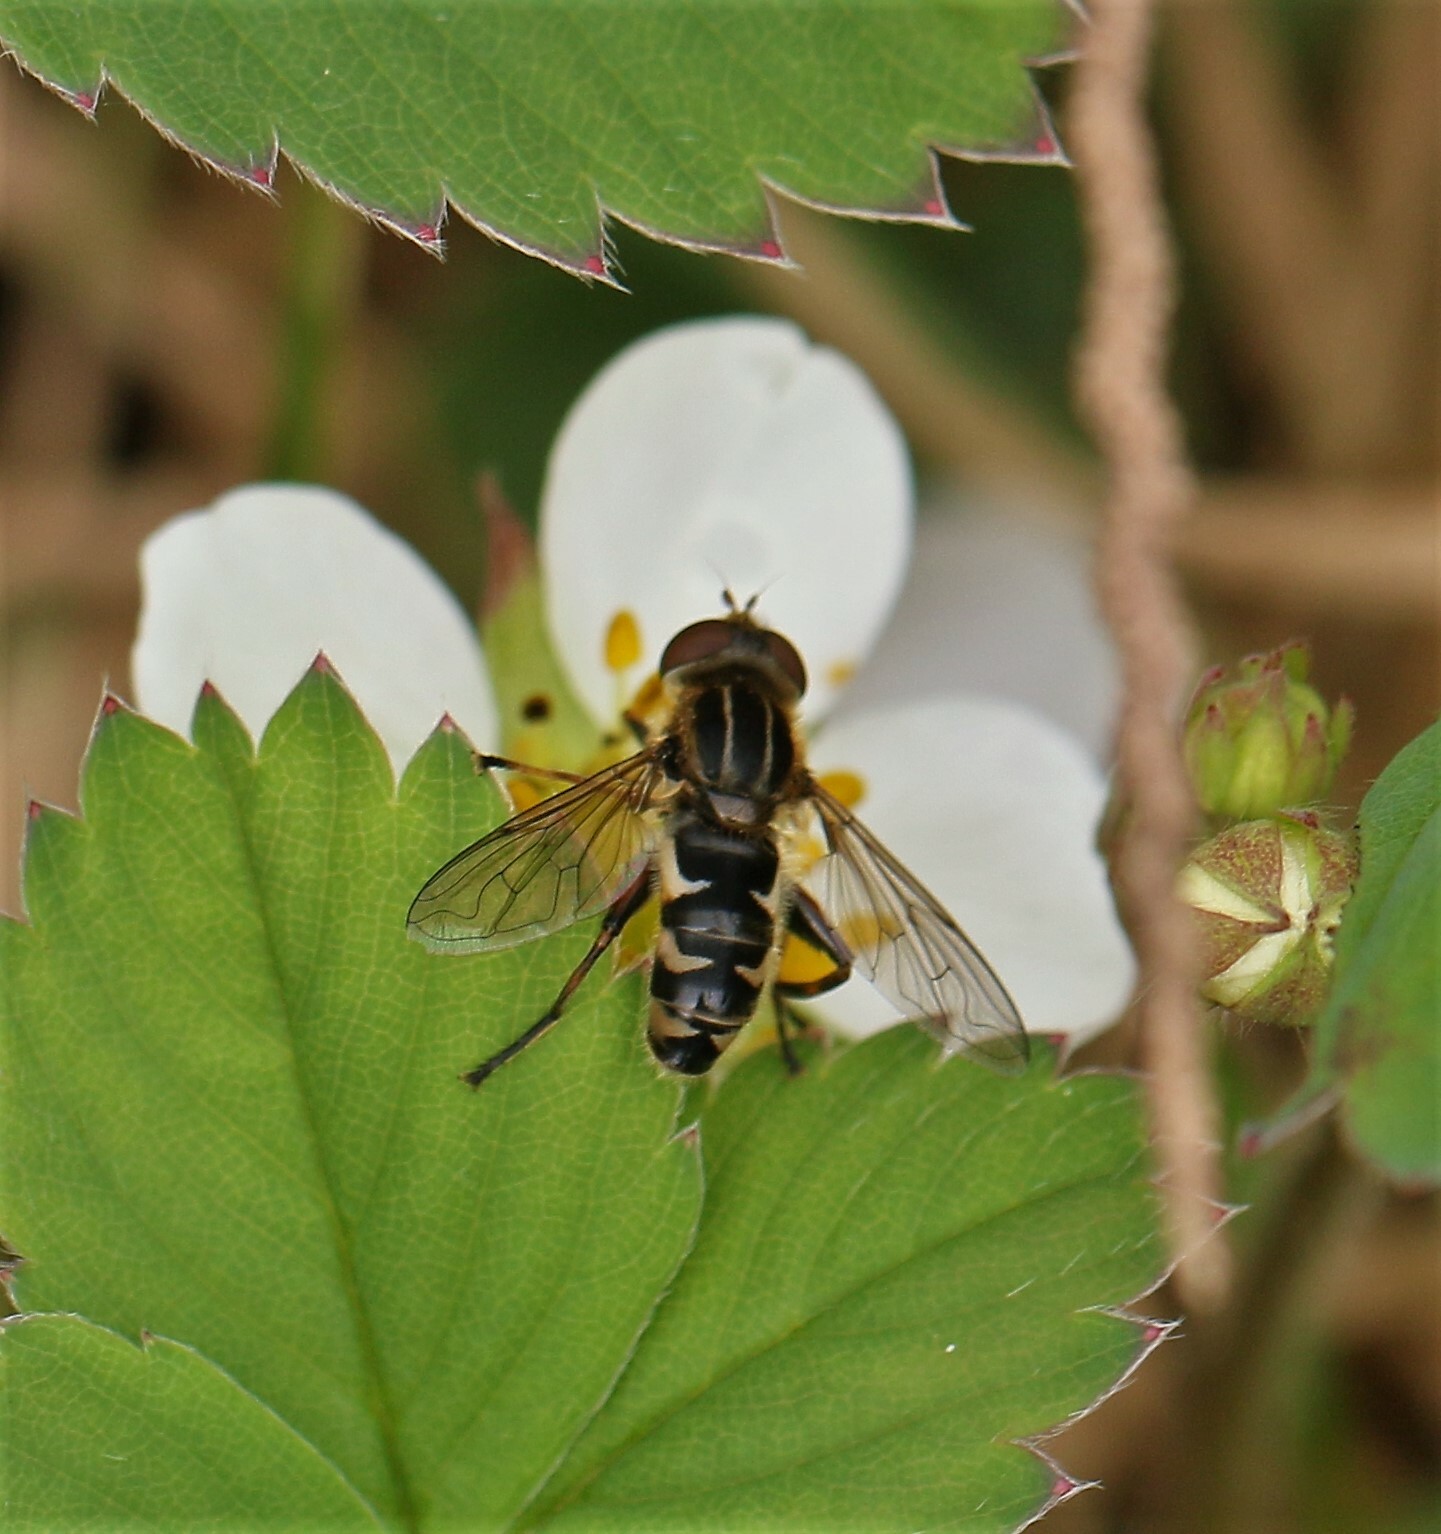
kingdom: Animalia
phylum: Arthropoda
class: Insecta
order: Diptera
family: Syrphidae
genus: Anasimyia
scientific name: Anasimyia
